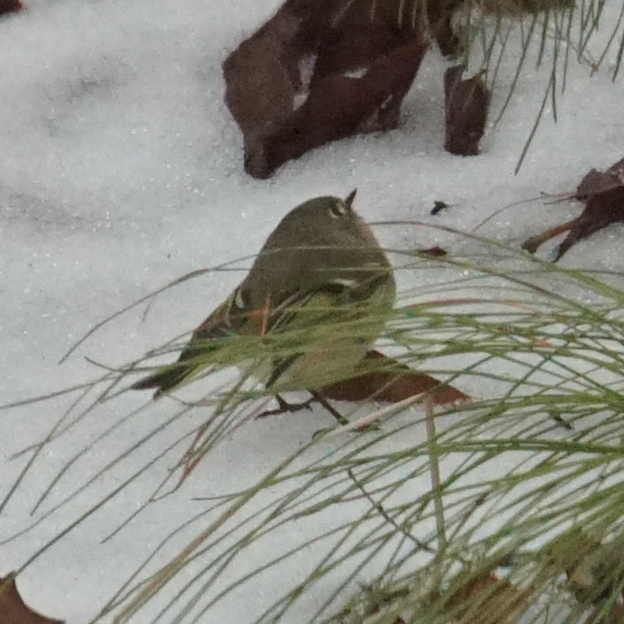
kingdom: Animalia
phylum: Chordata
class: Aves
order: Passeriformes
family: Regulidae
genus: Regulus
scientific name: Regulus calendula
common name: Ruby-crowned kinglet
